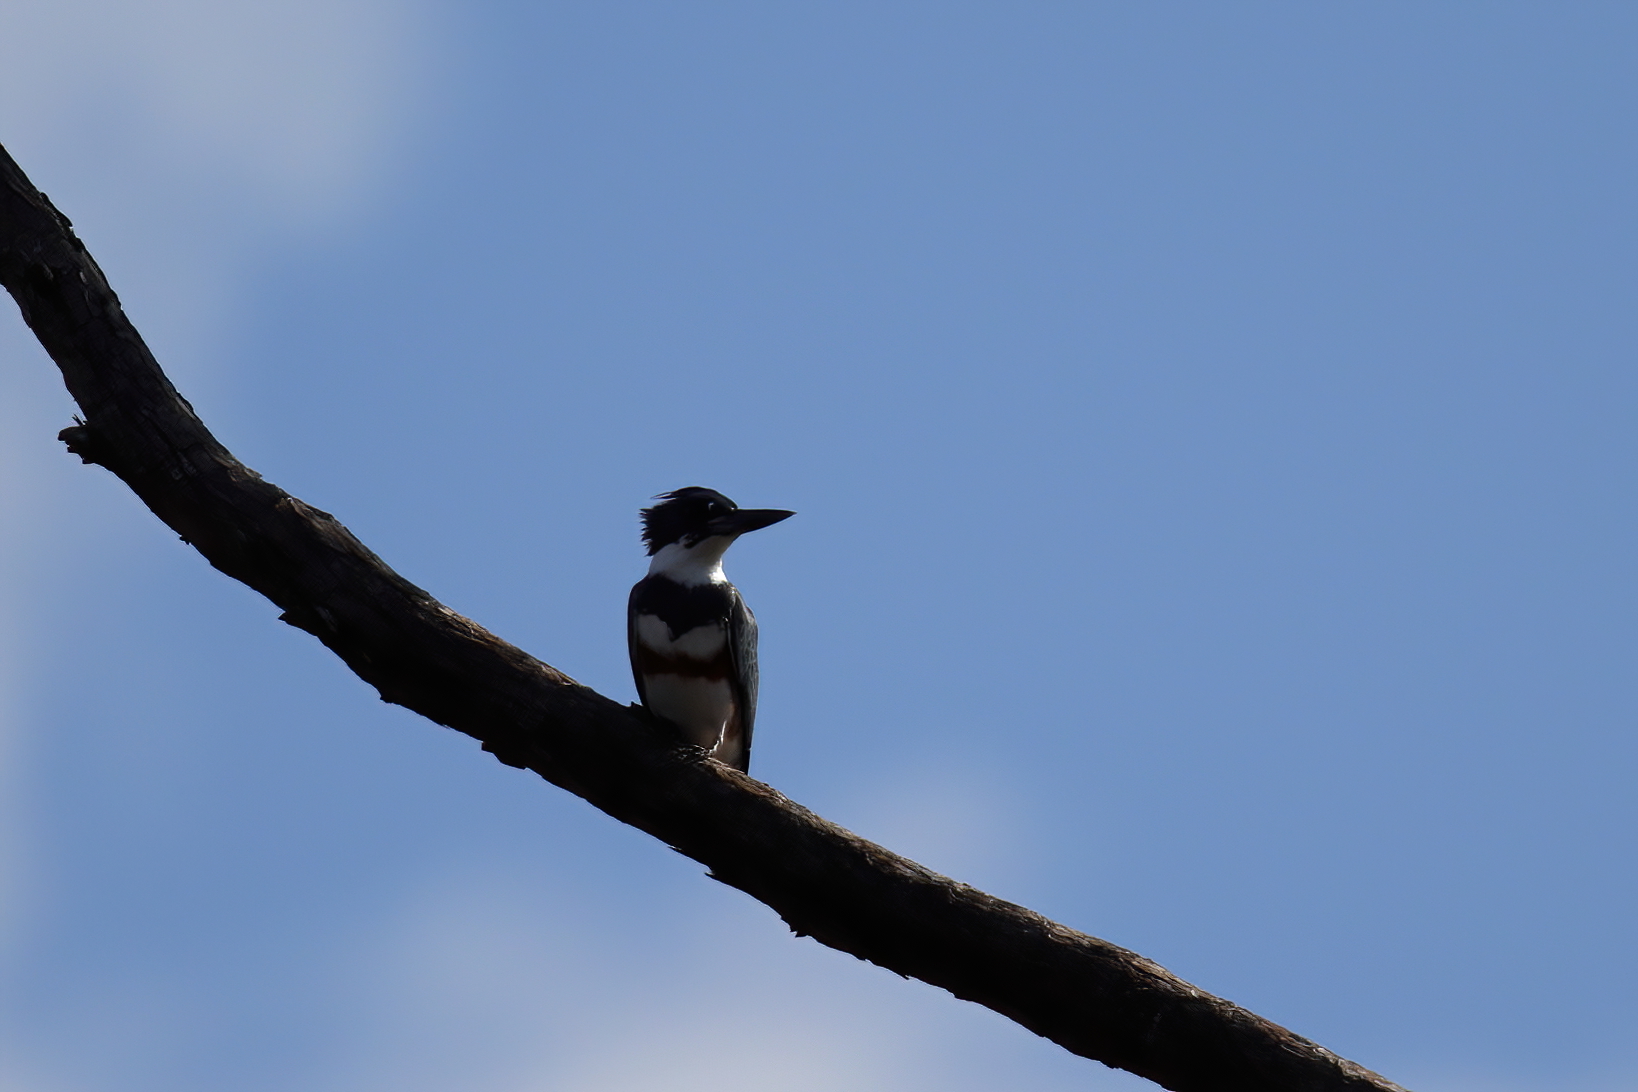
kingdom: Animalia
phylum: Chordata
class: Aves
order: Coraciiformes
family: Alcedinidae
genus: Megaceryle
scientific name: Megaceryle alcyon
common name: Belted kingfisher
